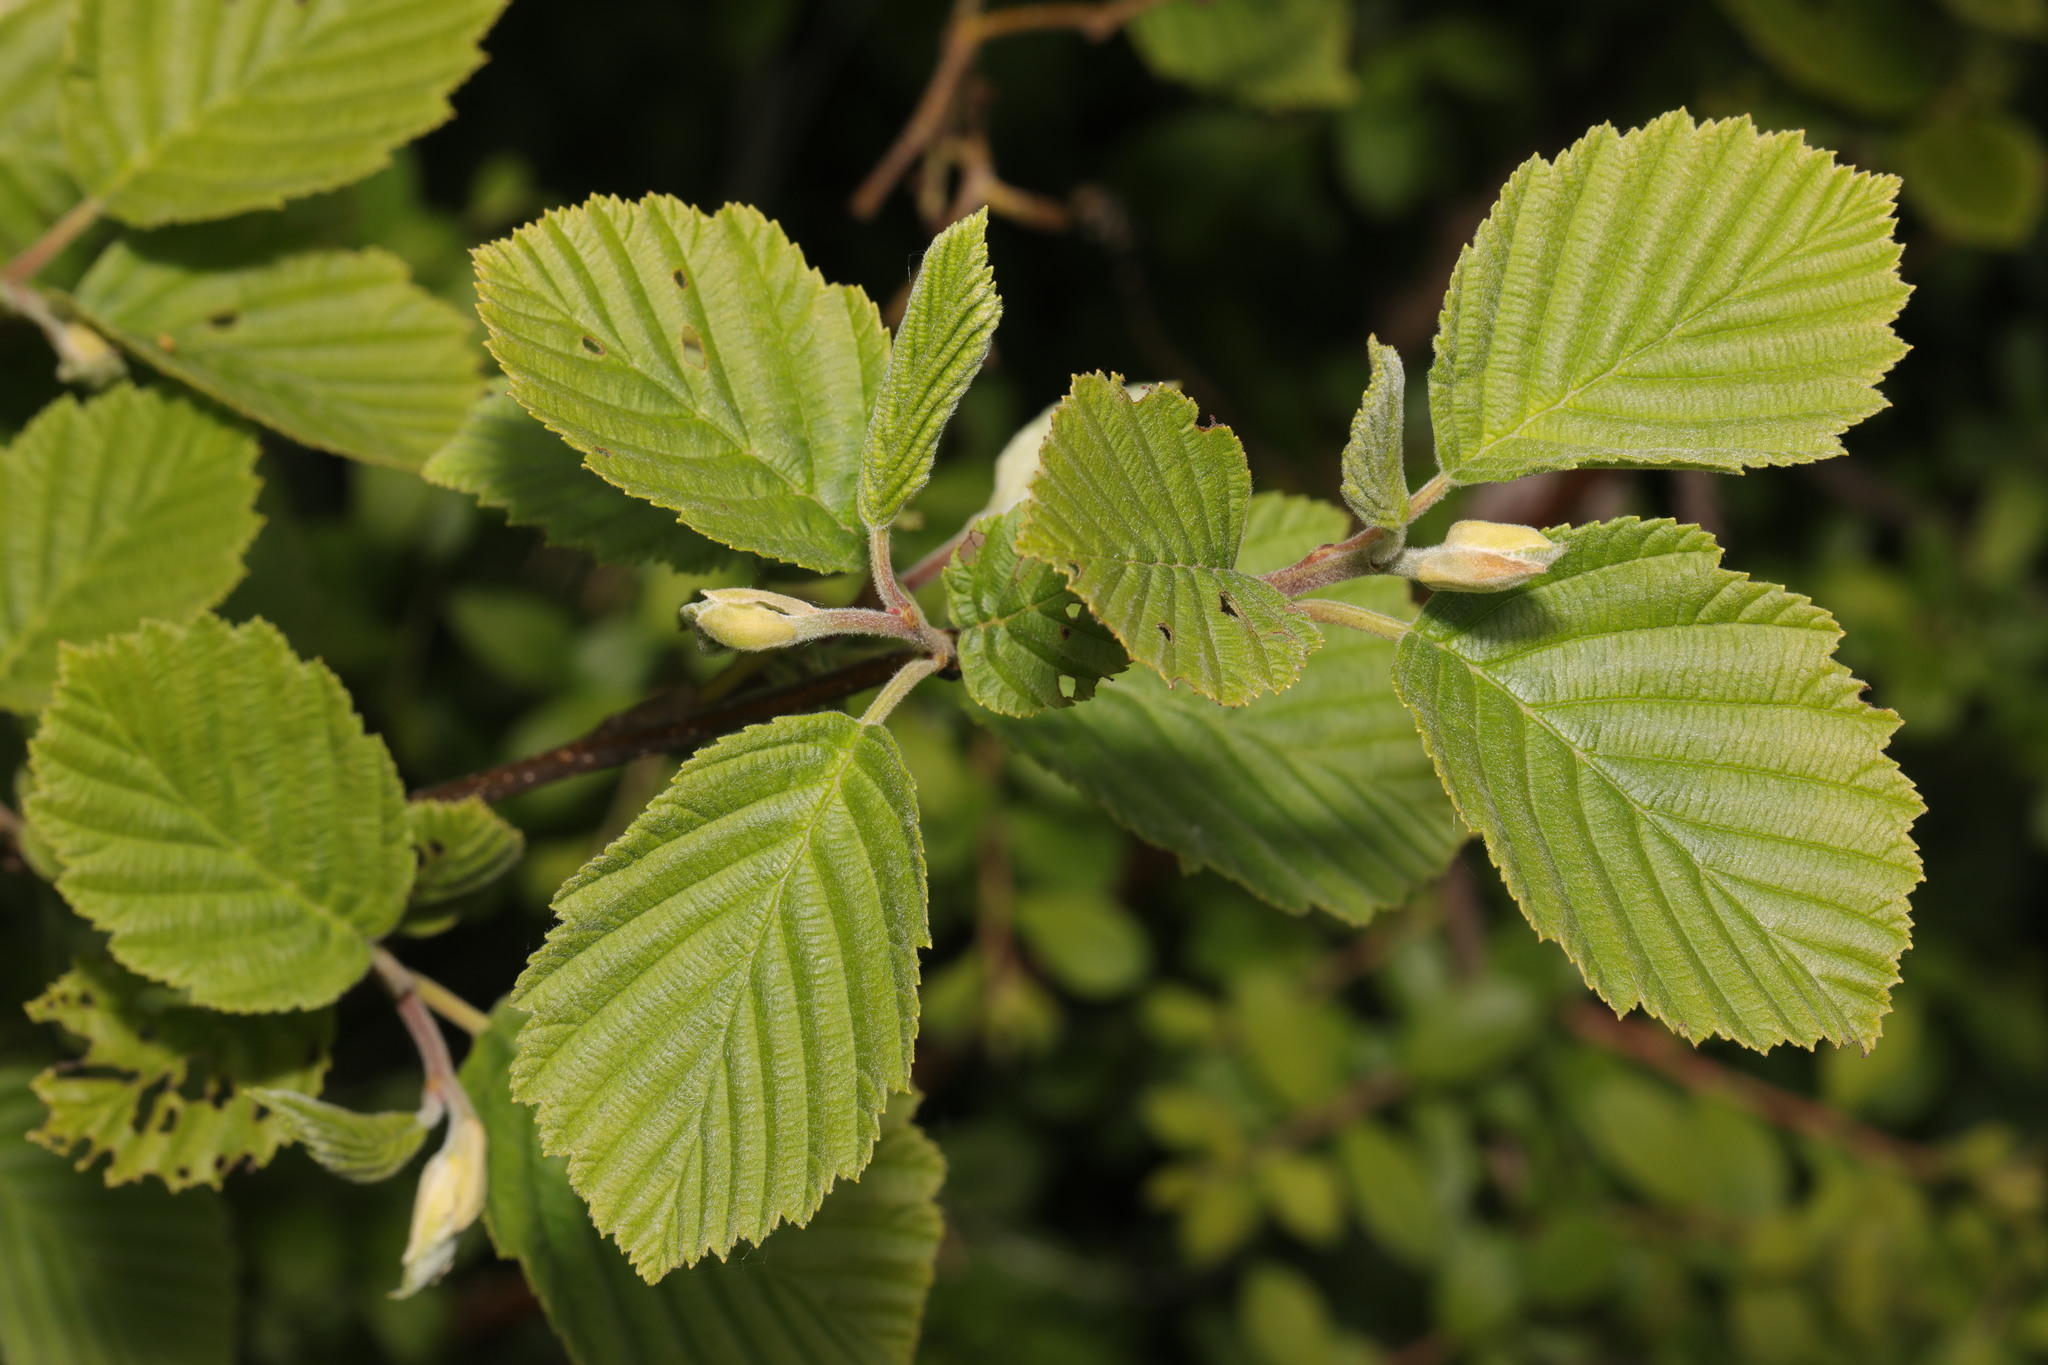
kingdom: Plantae
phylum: Tracheophyta
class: Magnoliopsida
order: Fagales
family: Betulaceae
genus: Alnus
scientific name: Alnus incana
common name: Grey alder
